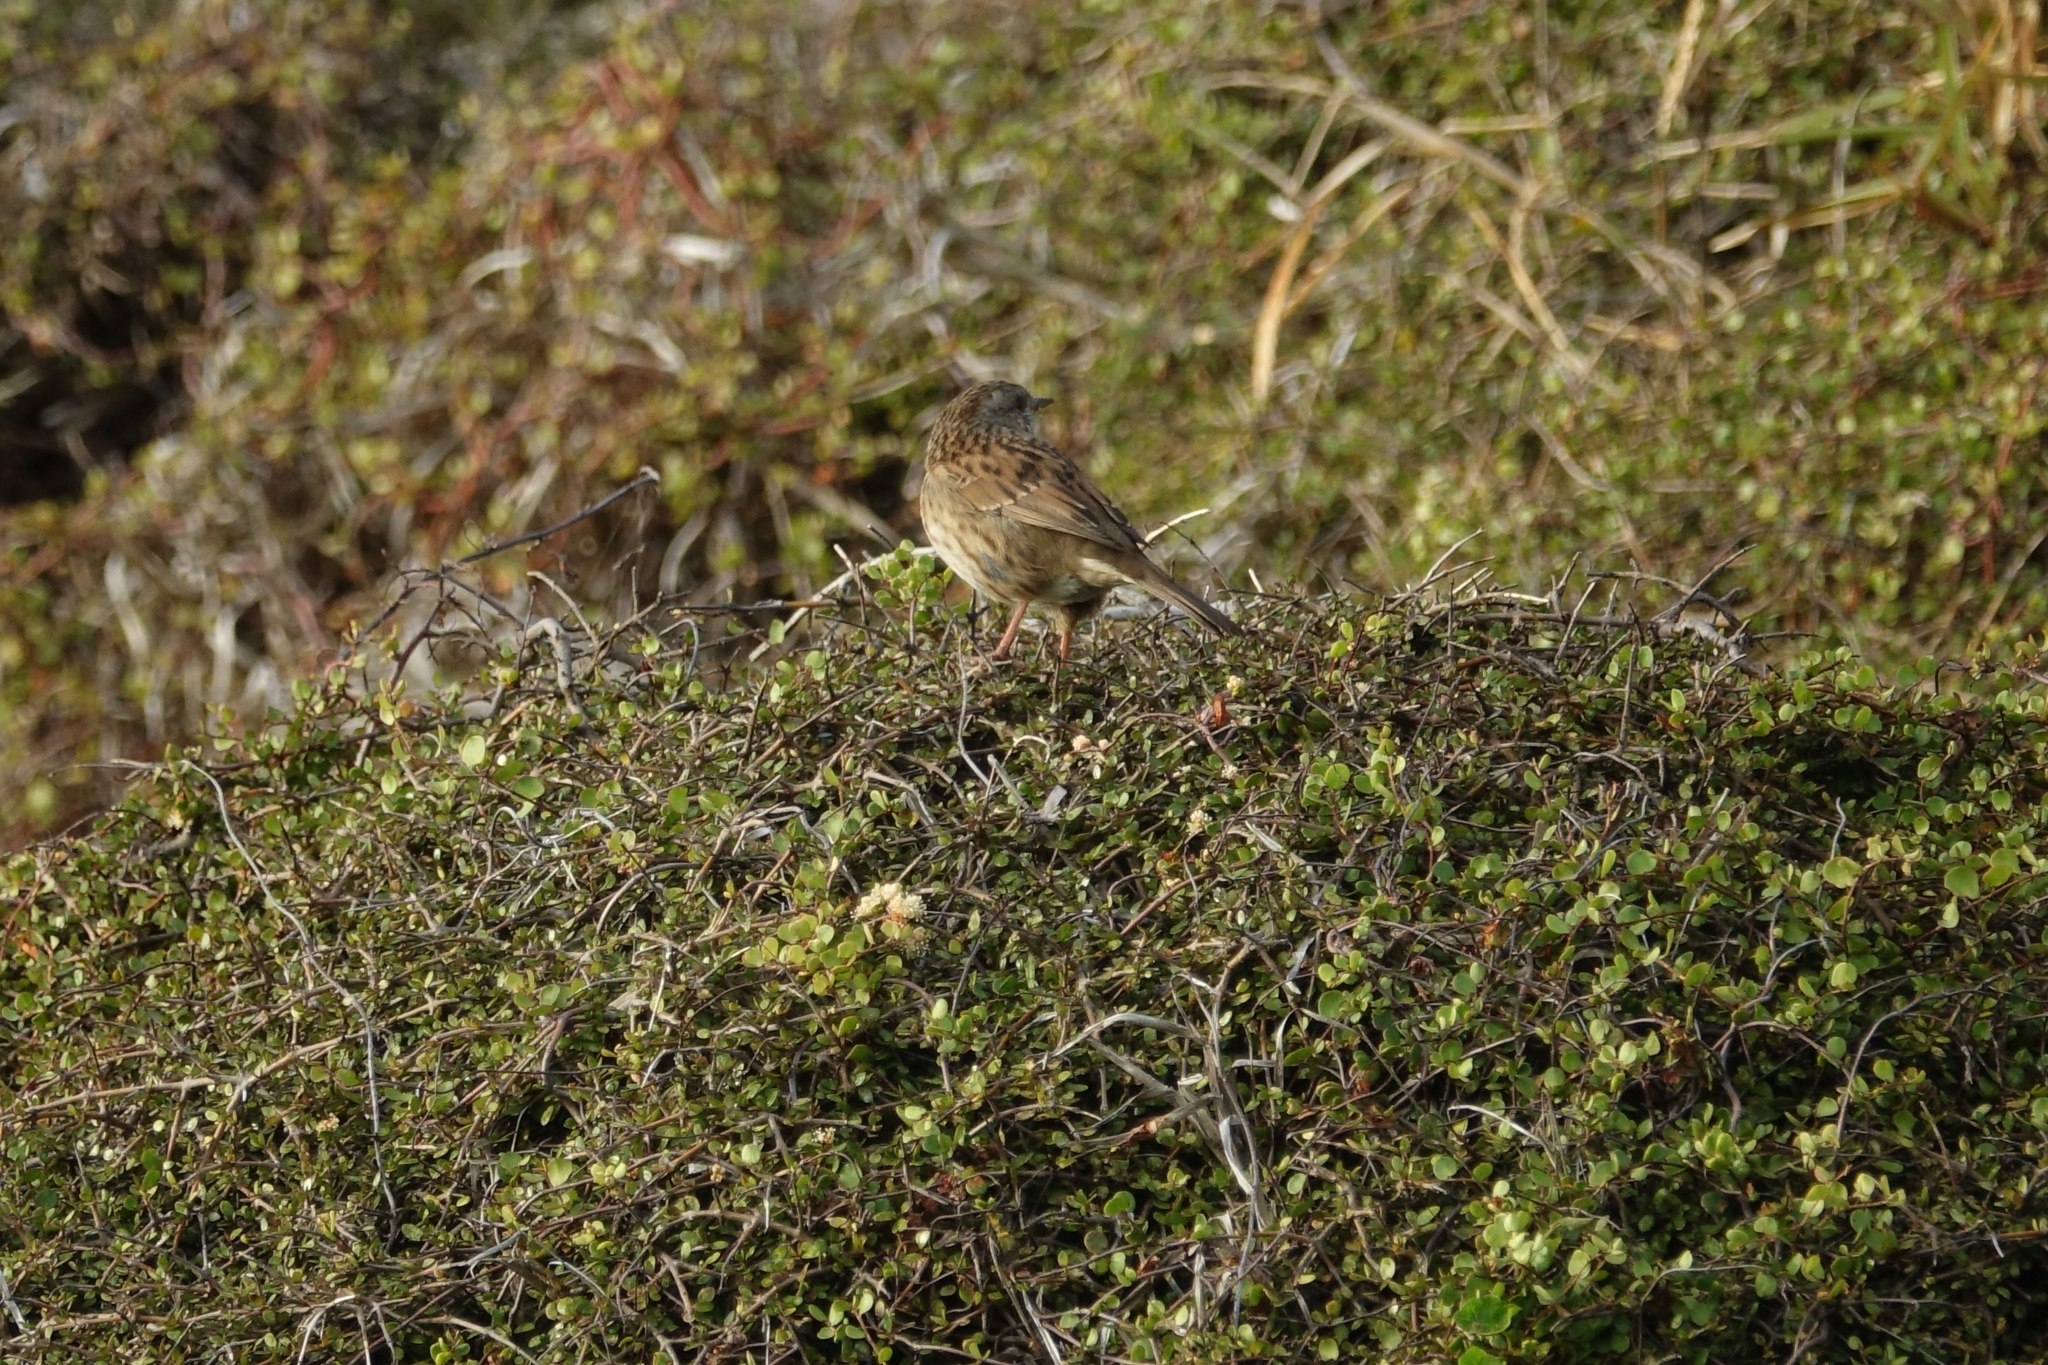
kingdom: Animalia
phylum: Chordata
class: Aves
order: Passeriformes
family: Prunellidae
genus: Prunella
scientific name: Prunella modularis
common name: Dunnock
